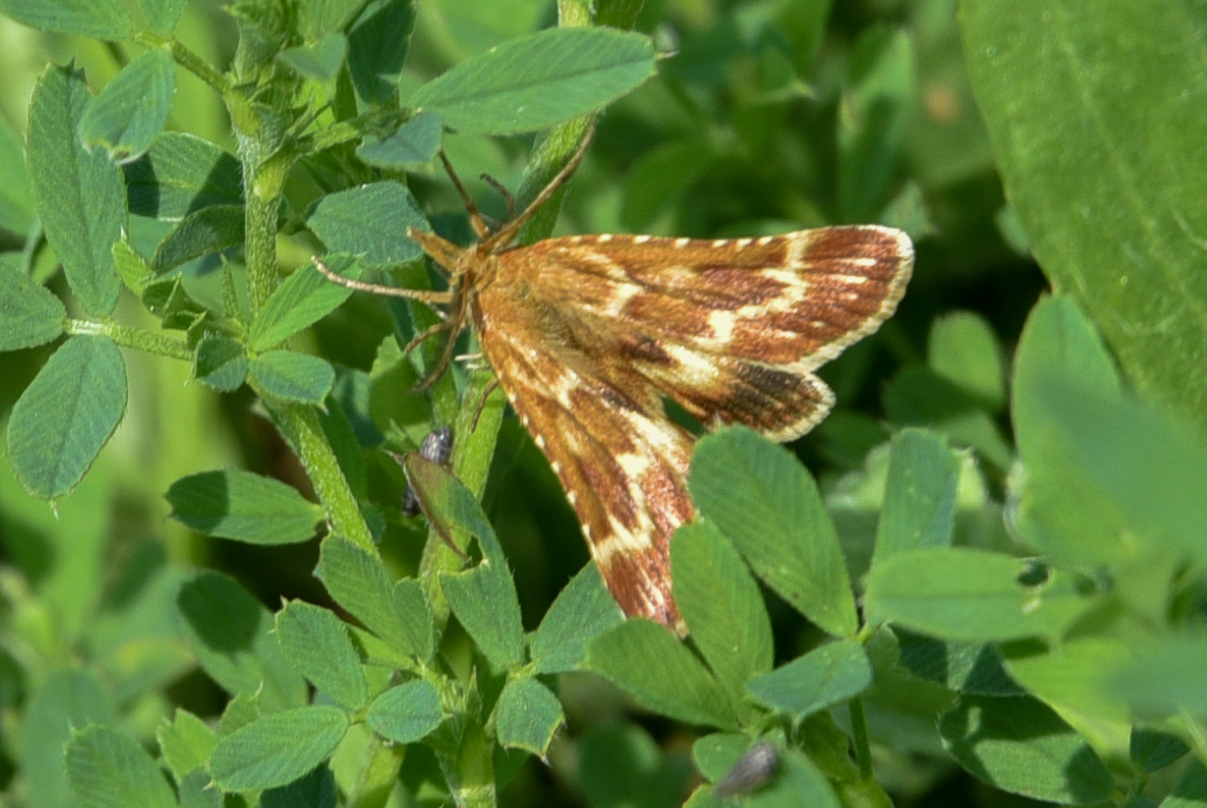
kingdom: Animalia
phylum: Arthropoda
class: Insecta
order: Lepidoptera
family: Pyralidae
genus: Synaphe
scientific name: Synaphe moldavica
